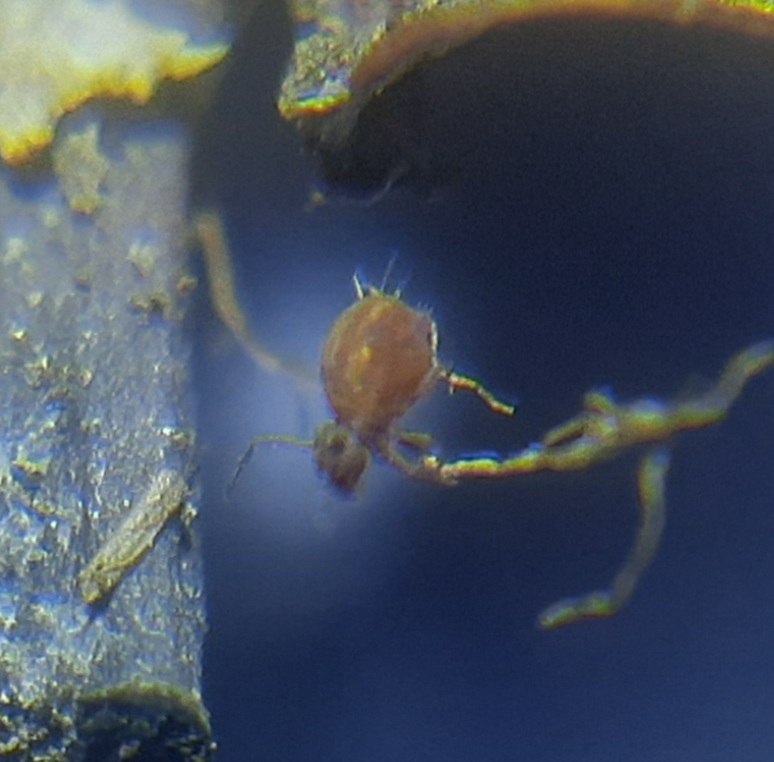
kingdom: Animalia
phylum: Arthropoda
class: Collembola
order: Symphypleona
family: Dicyrtomidae
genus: Dicyrtoma
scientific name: Dicyrtoma fusca
